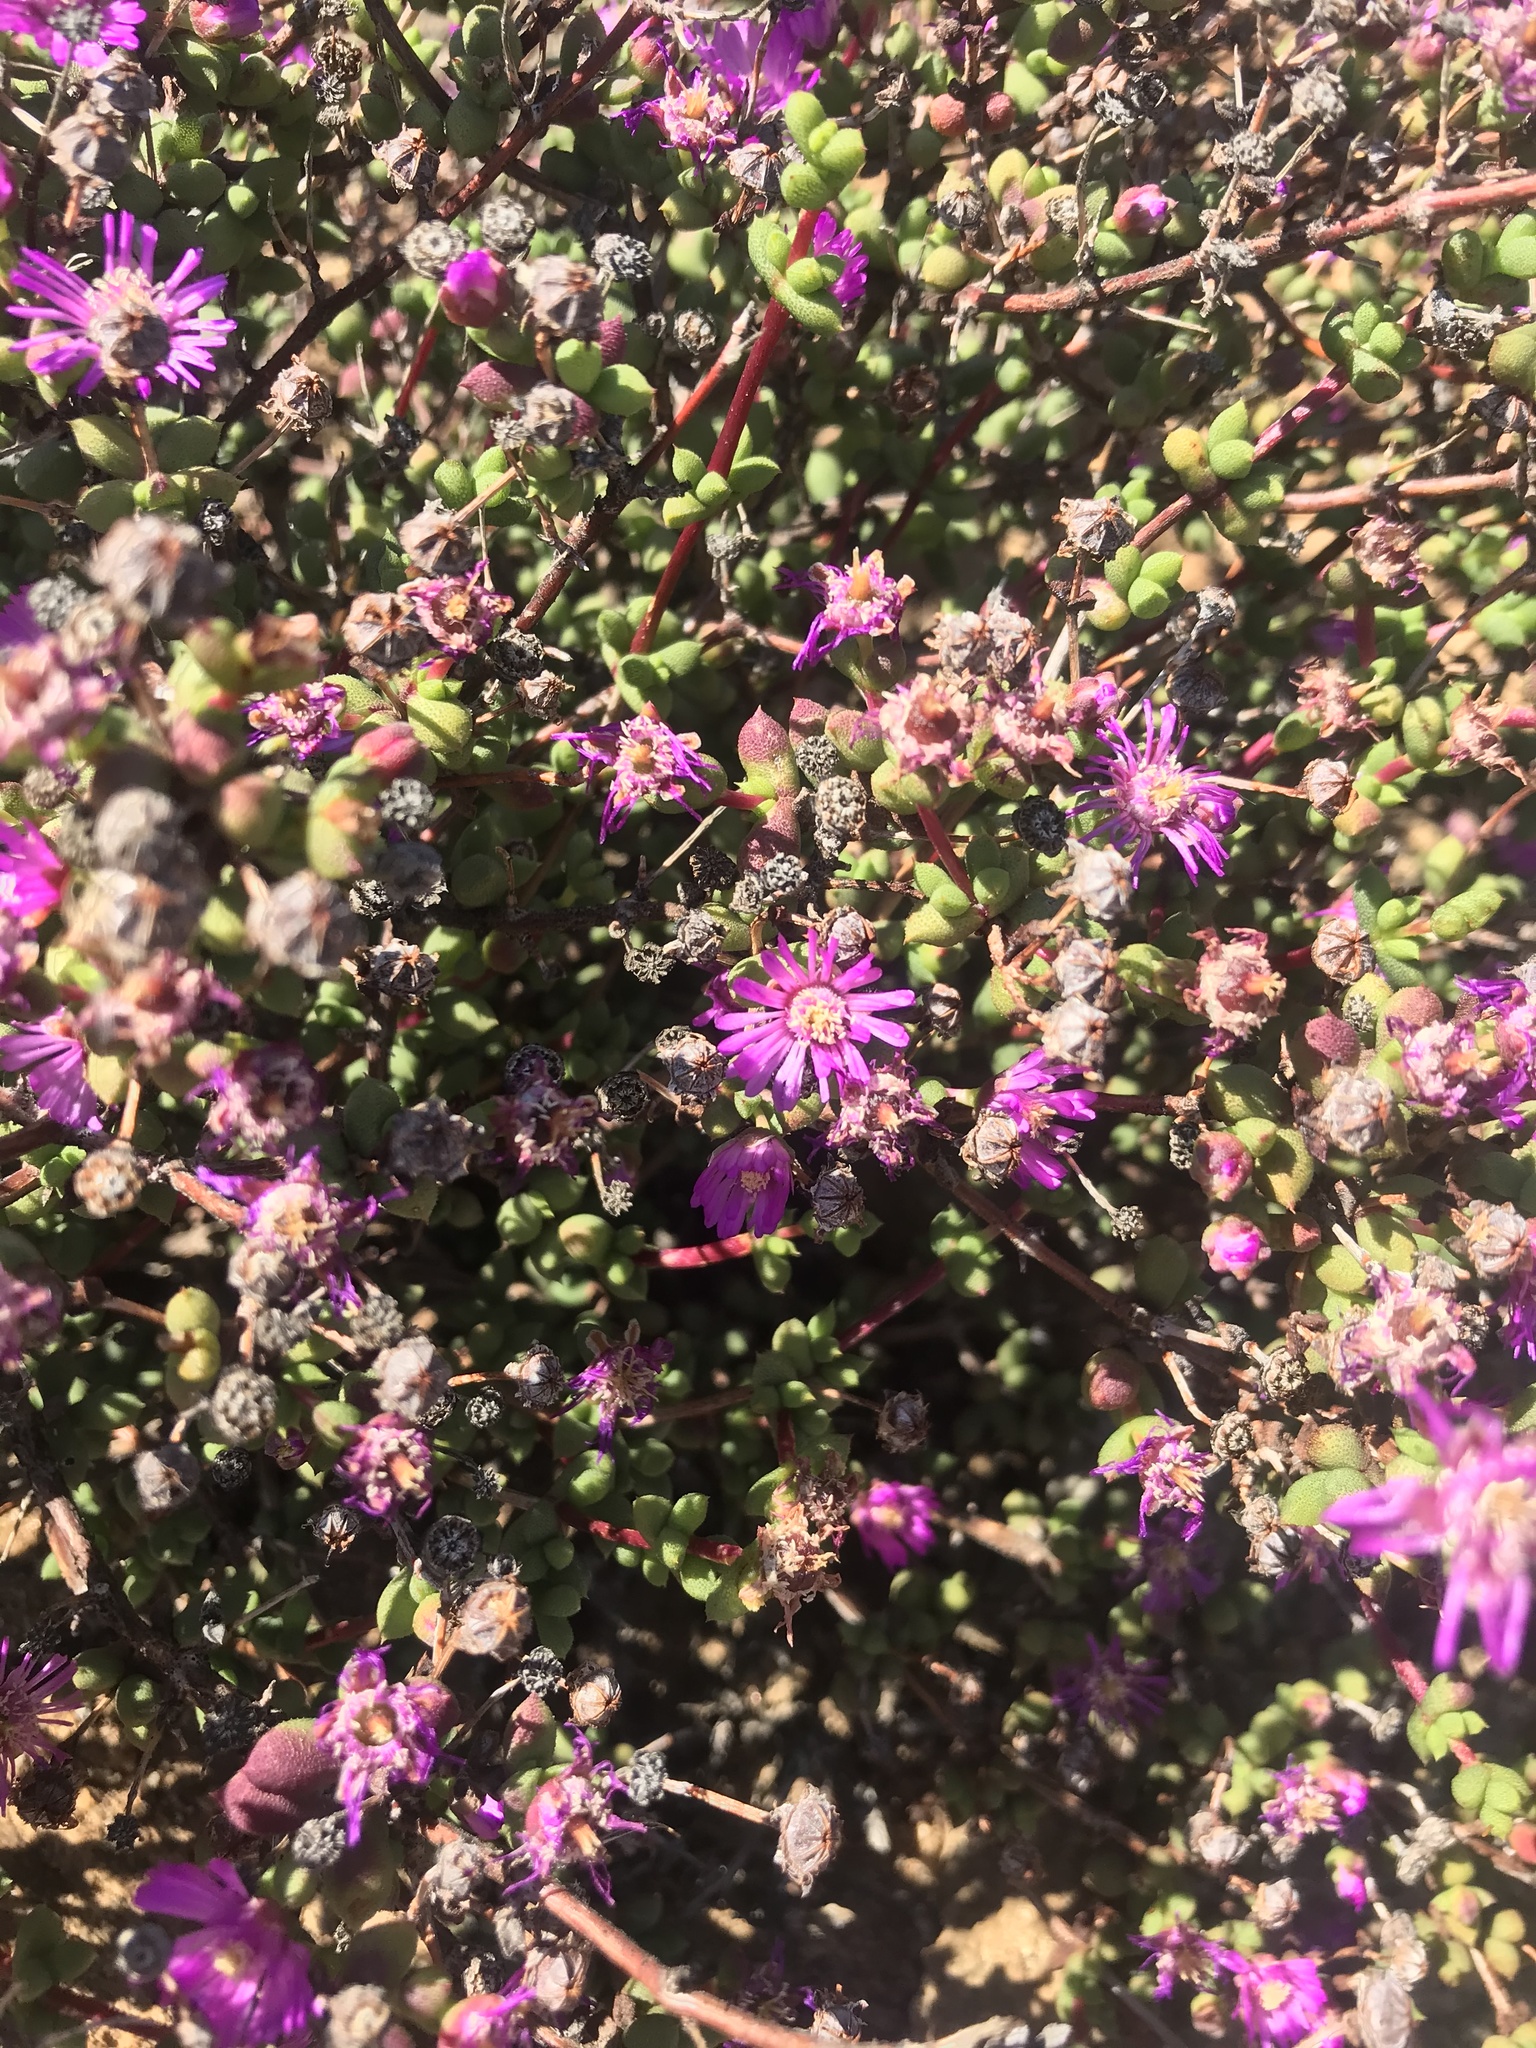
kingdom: Plantae
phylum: Tracheophyta
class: Magnoliopsida
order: Caryophyllales
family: Aizoaceae
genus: Schlechteranthus
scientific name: Schlechteranthus subglobosus
